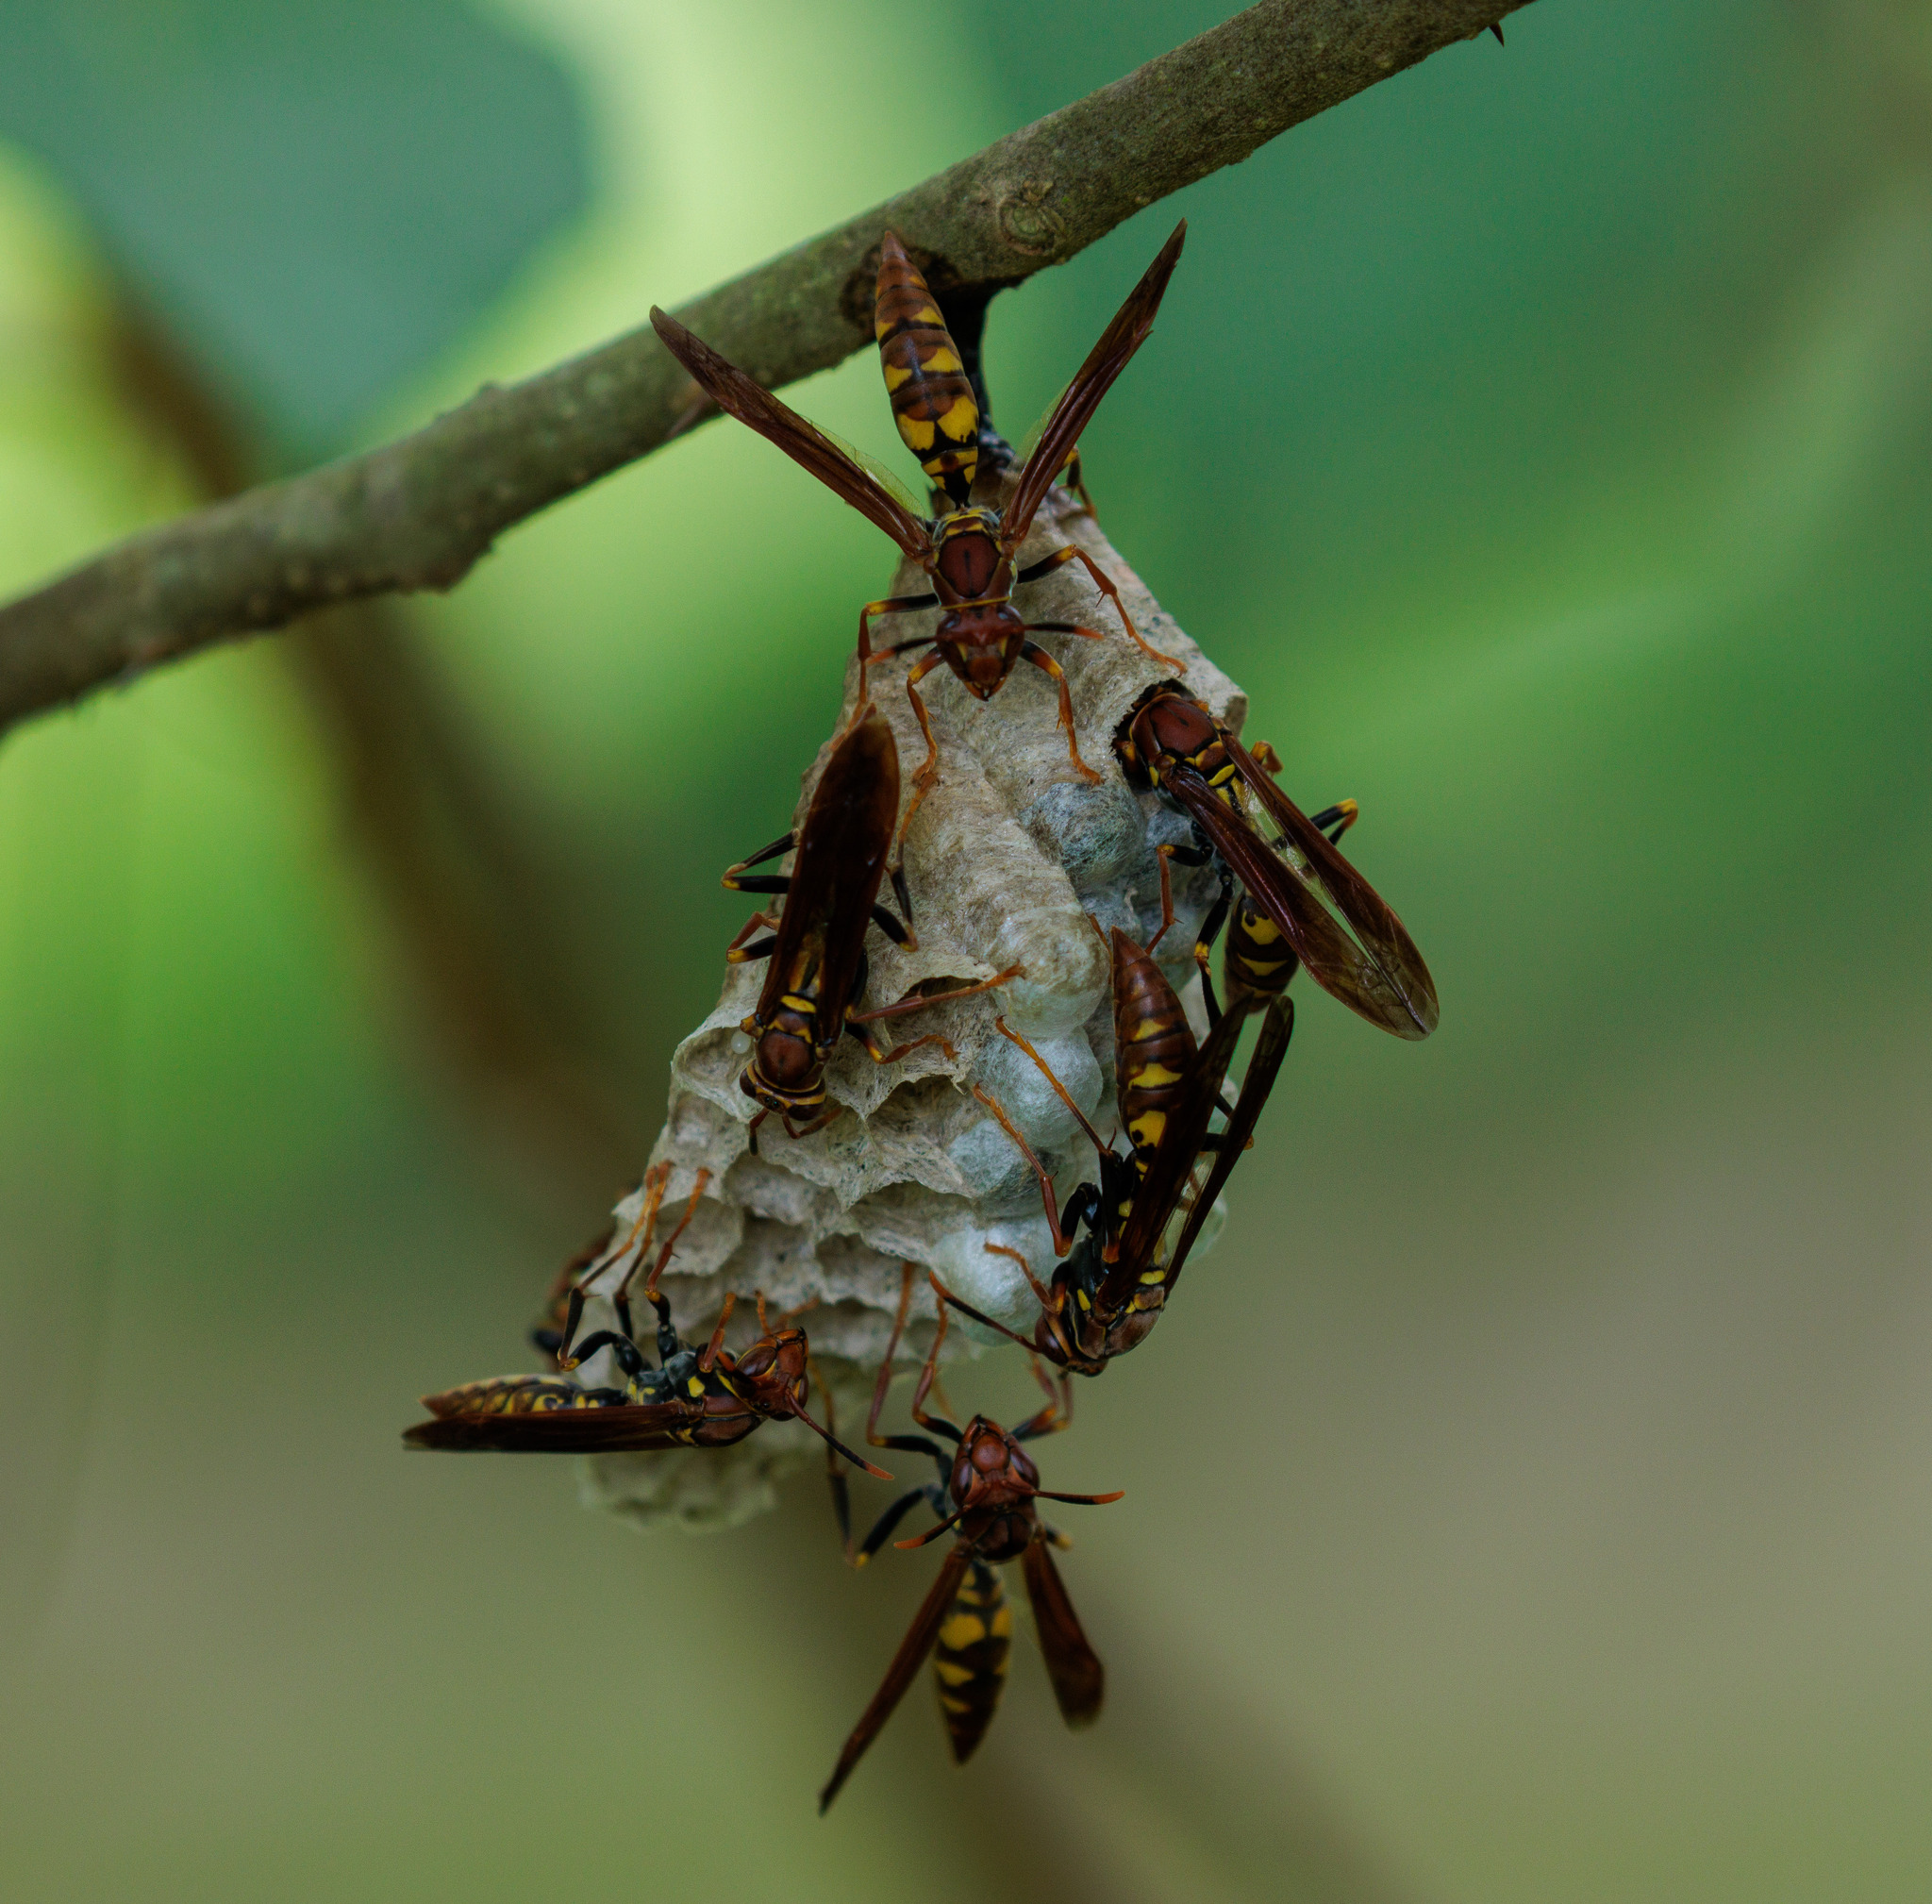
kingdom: Animalia
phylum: Arthropoda
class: Insecta
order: Hymenoptera
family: Eumenidae
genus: Polistes
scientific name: Polistes versicolor
